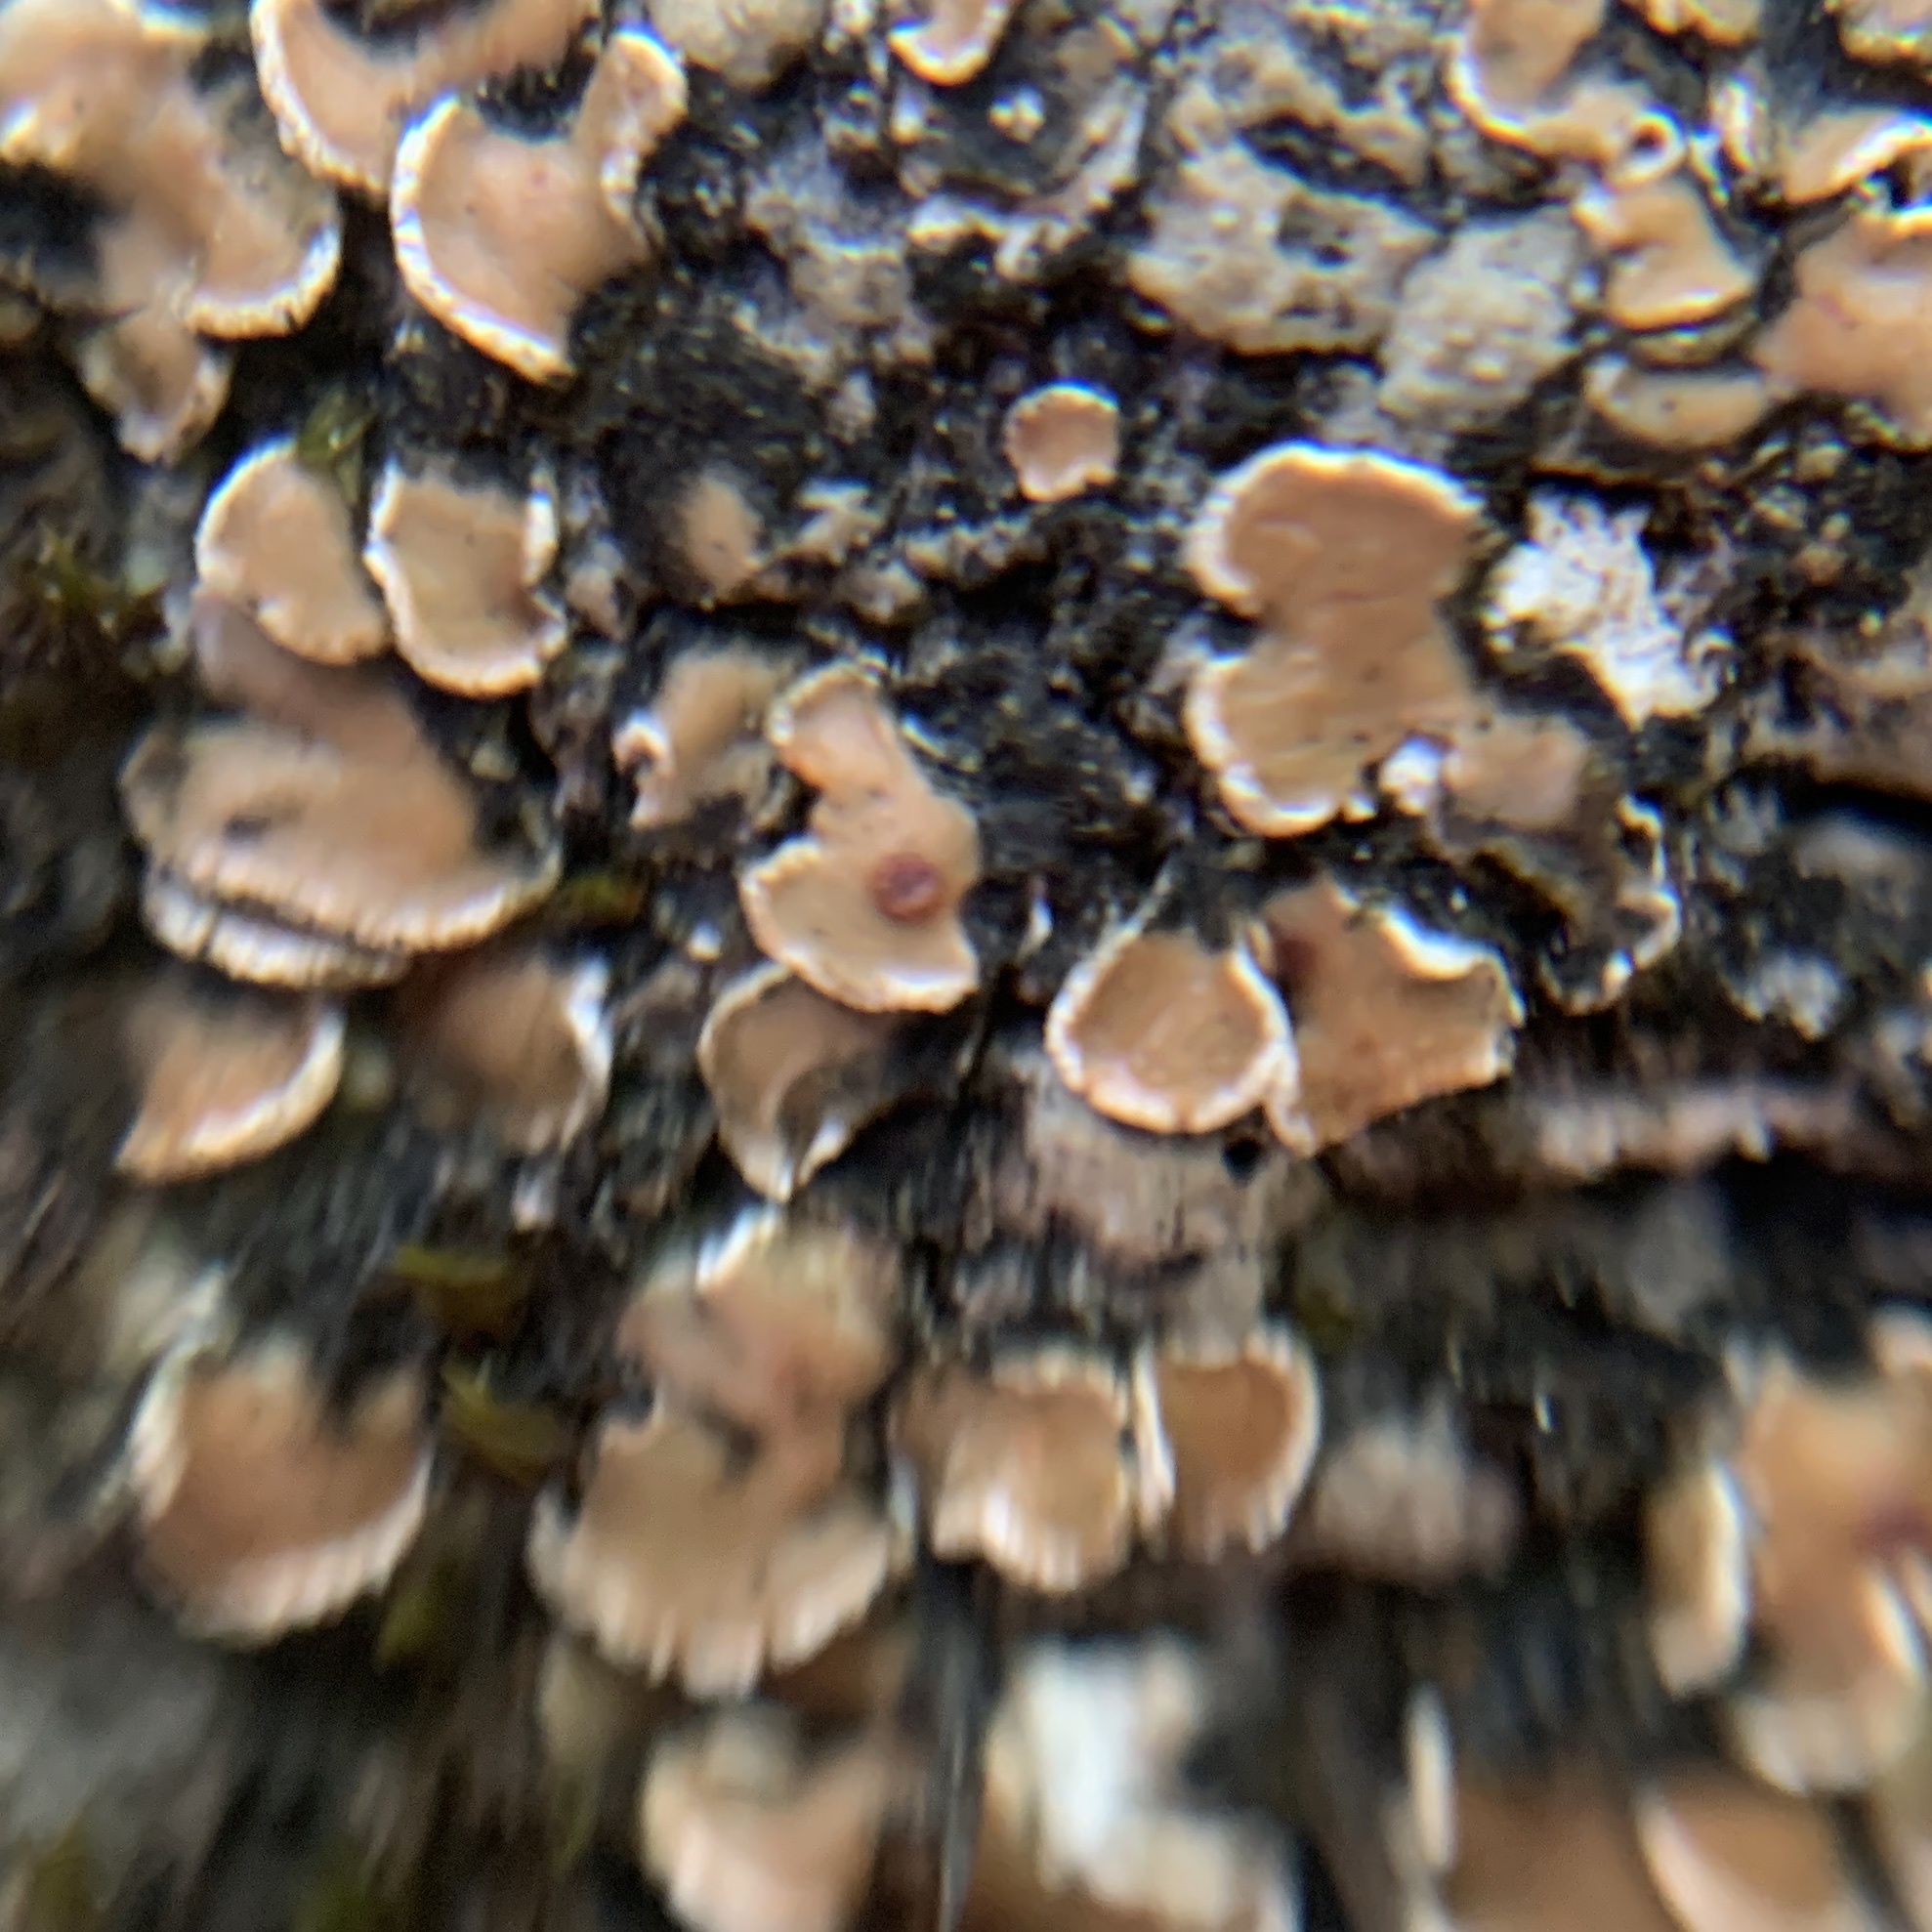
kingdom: Fungi
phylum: Ascomycota
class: Lecanoromycetes
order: Lecanorales
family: Psoraceae
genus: Psora
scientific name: Psora pseudorussellii
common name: Bordered scale lichen
